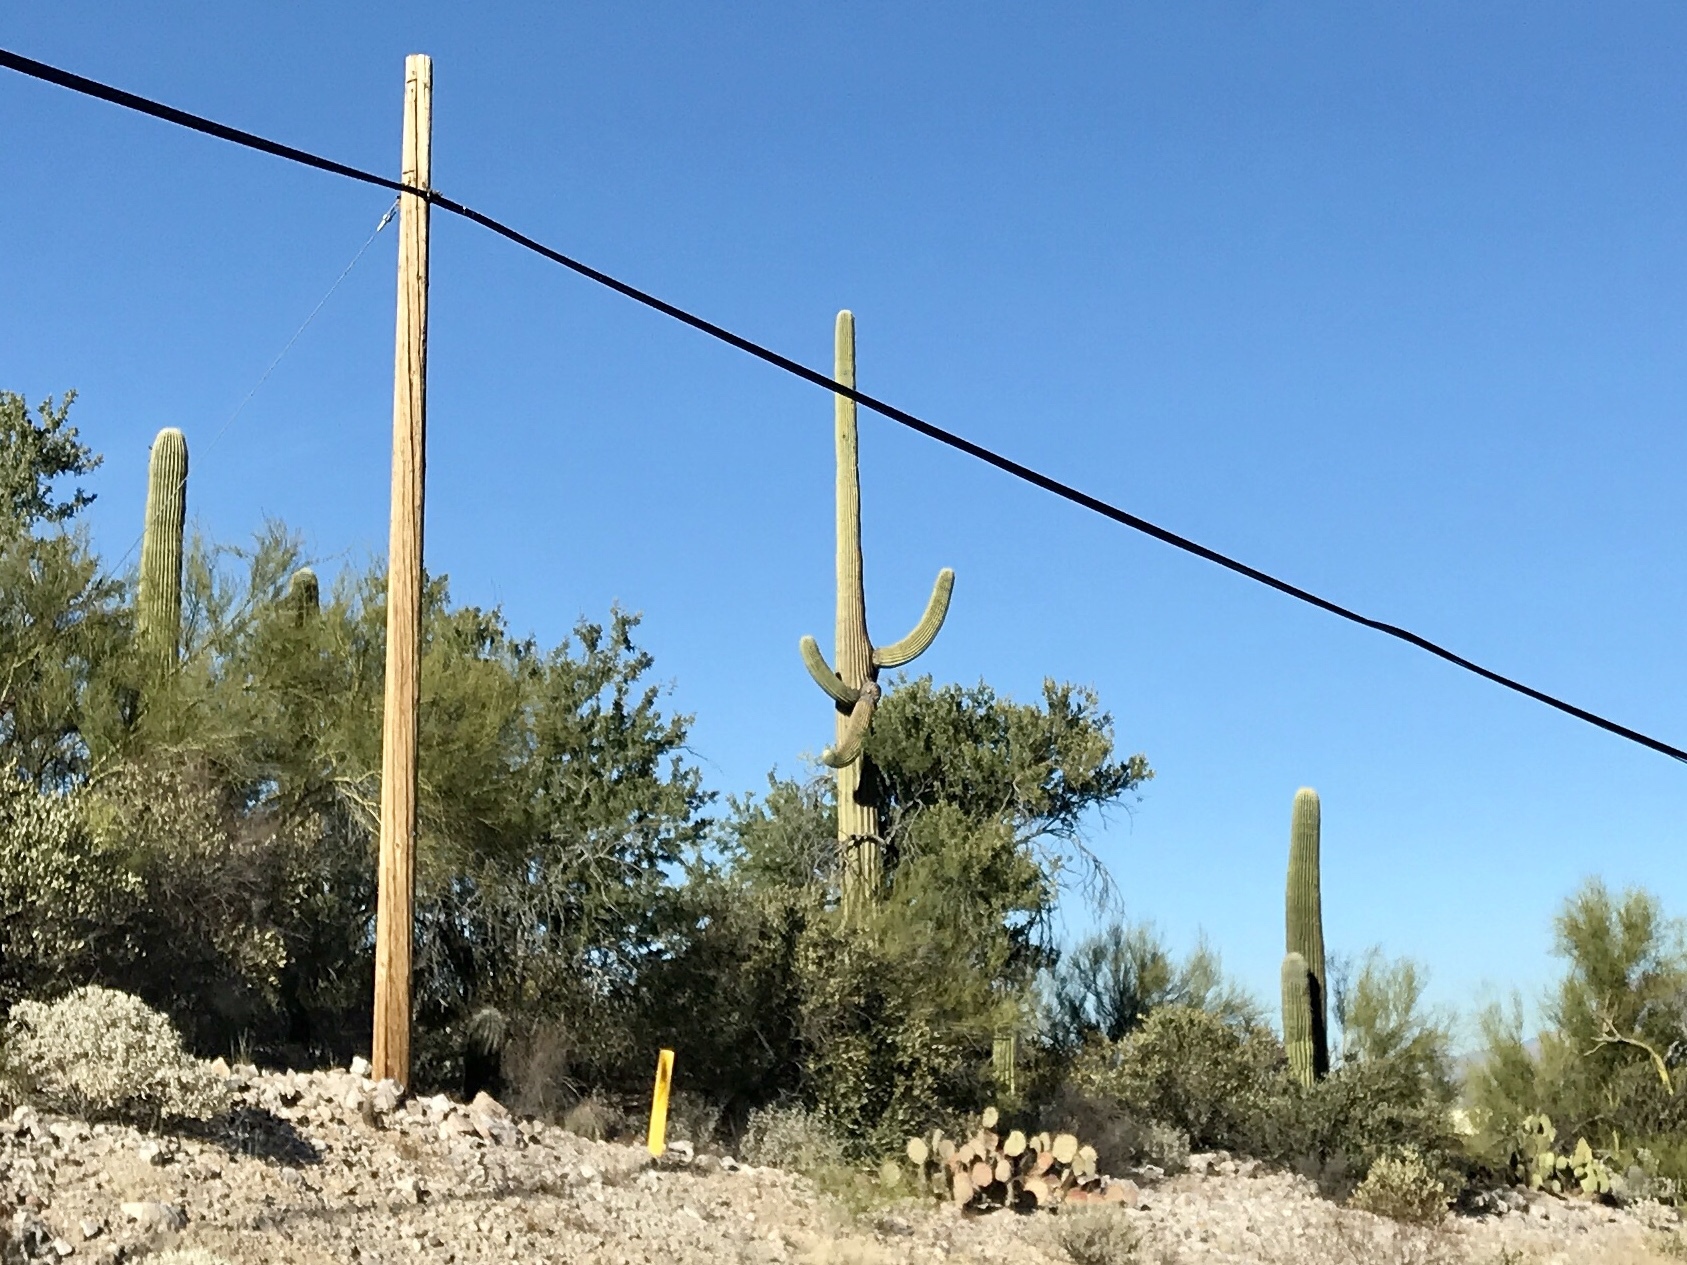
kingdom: Plantae
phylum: Tracheophyta
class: Magnoliopsida
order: Caryophyllales
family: Cactaceae
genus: Carnegiea
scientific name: Carnegiea gigantea
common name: Saguaro
